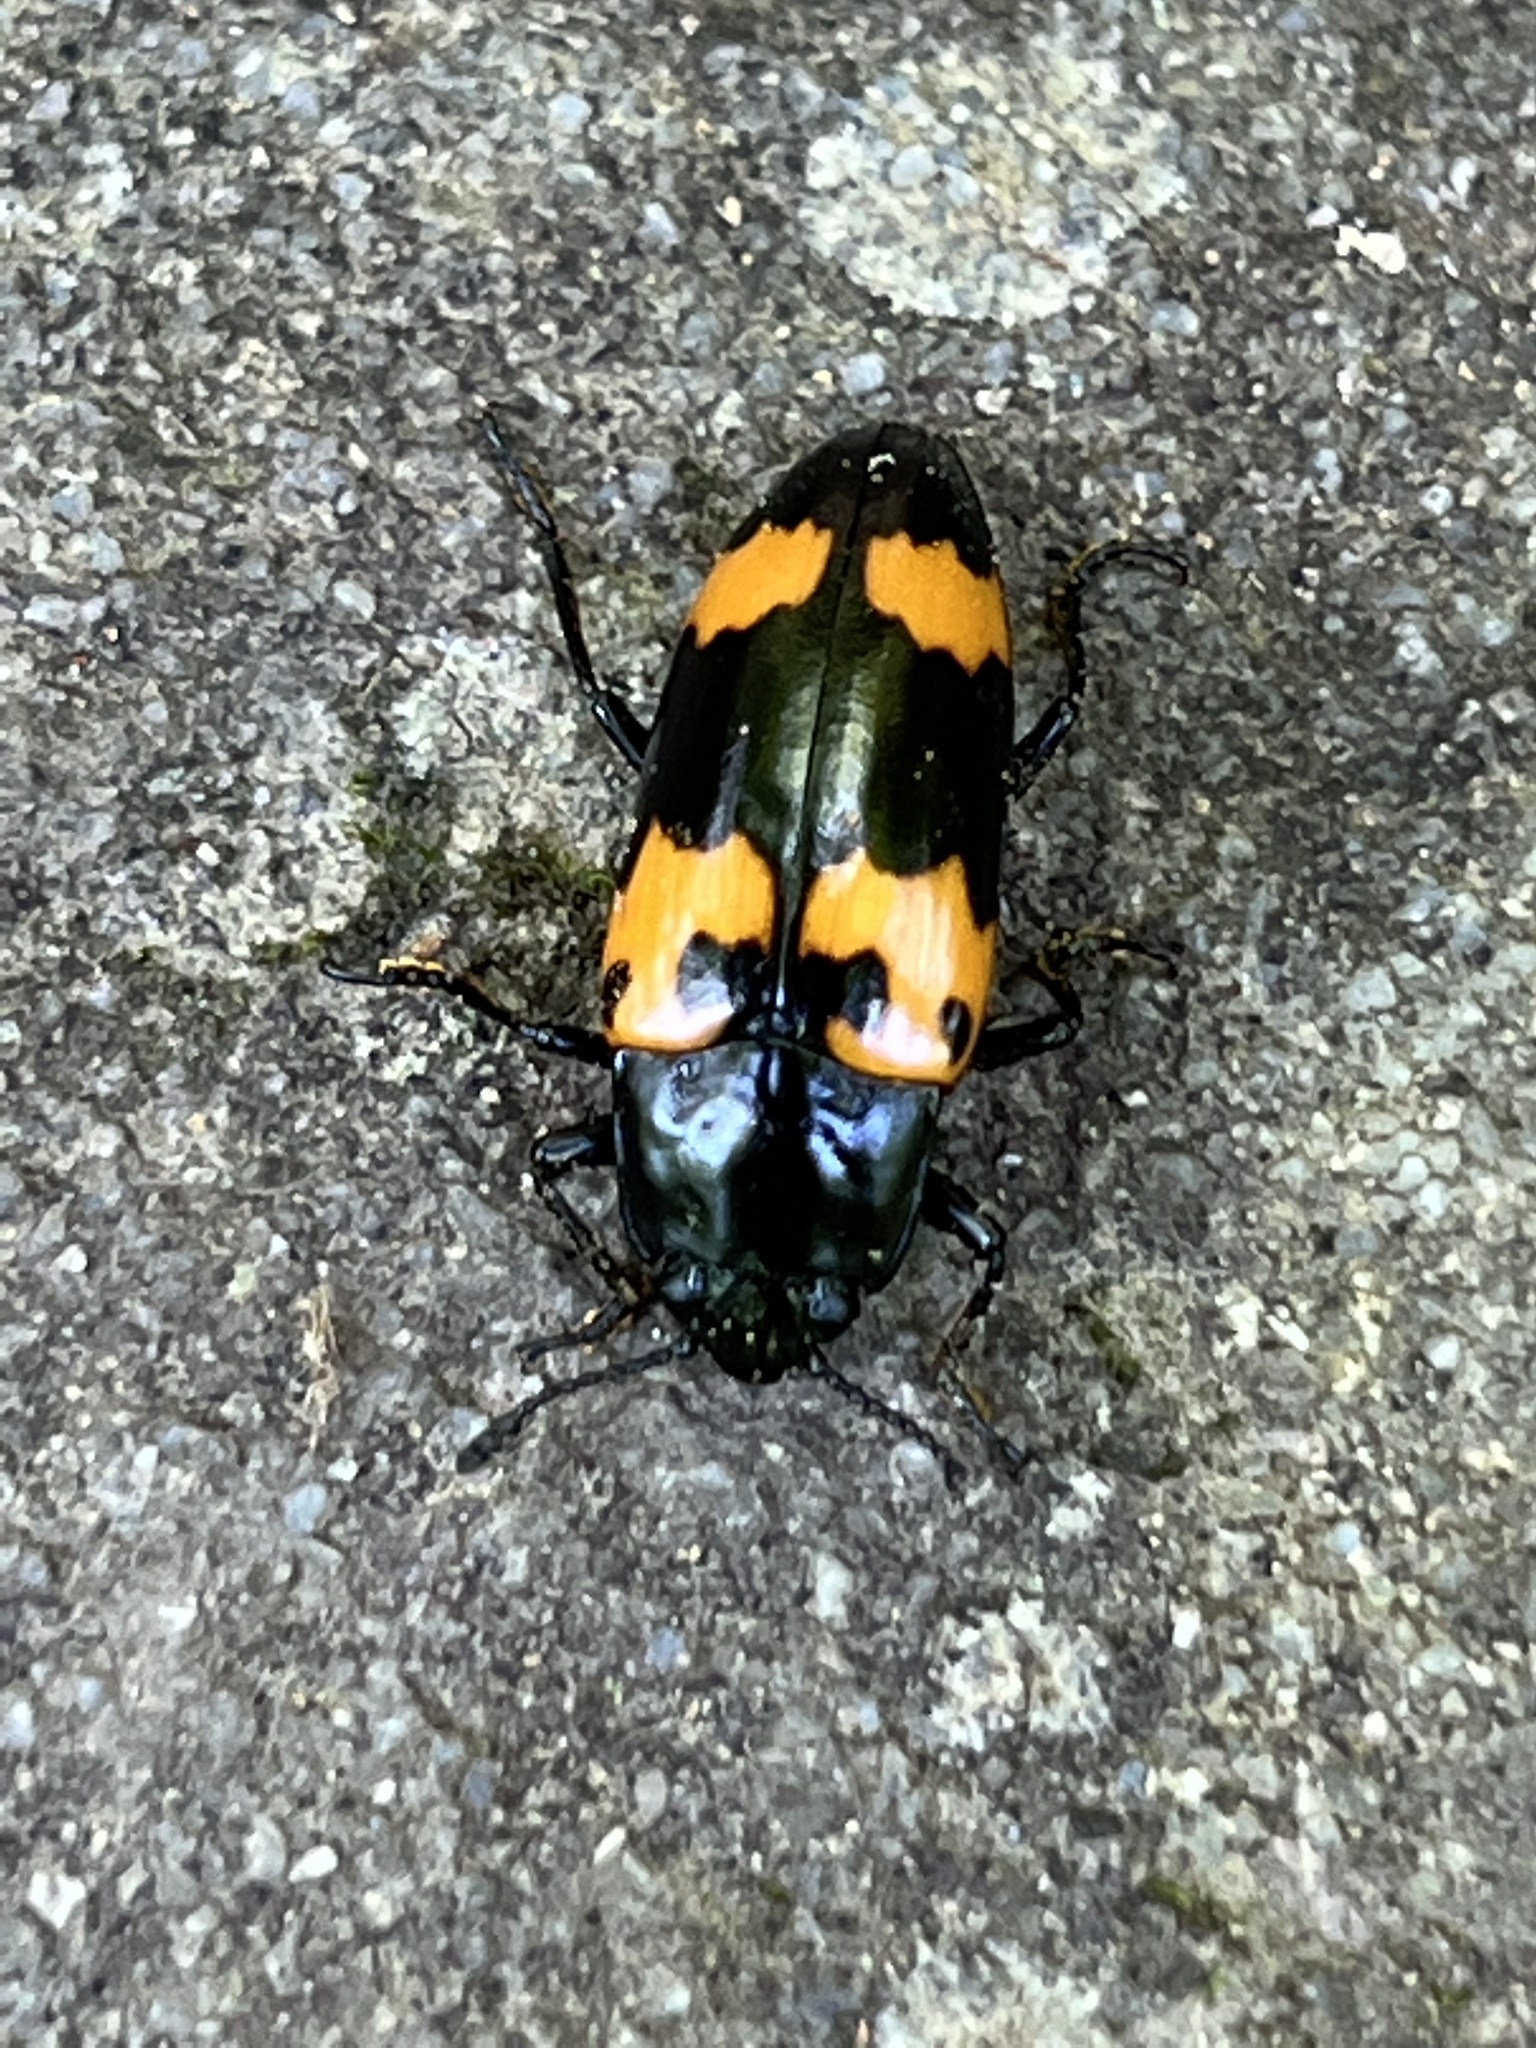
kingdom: Animalia
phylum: Arthropoda
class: Insecta
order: Coleoptera
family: Erotylidae
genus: Megalodacne
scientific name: Megalodacne heros
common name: Pleasing fungus beetle
